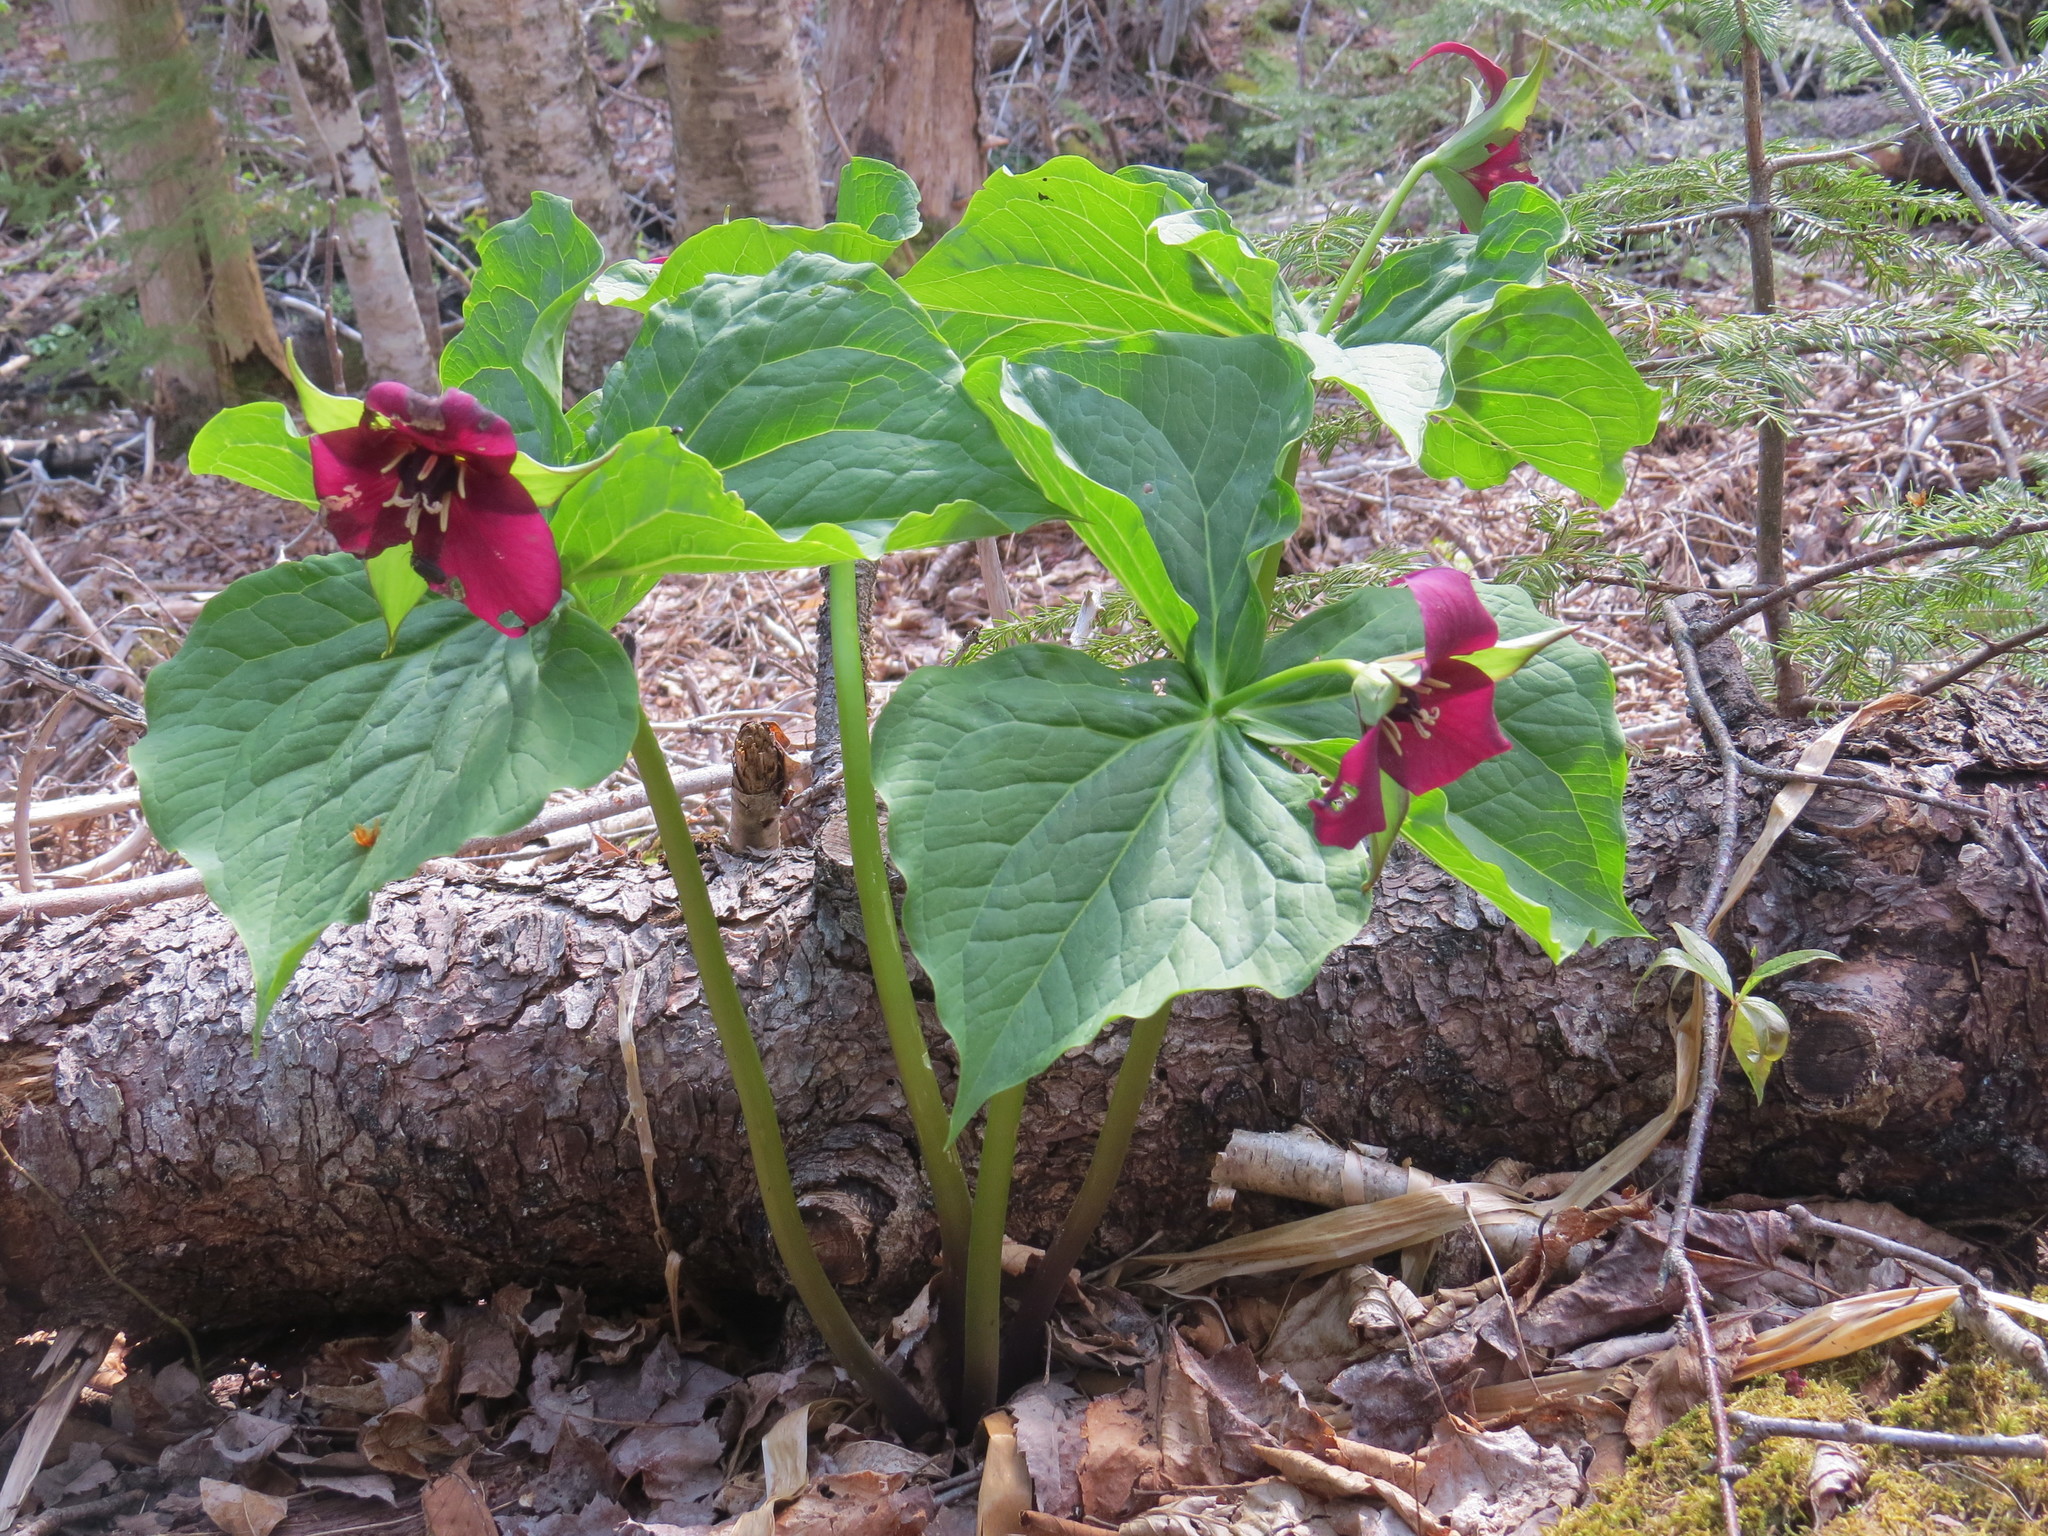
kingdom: Plantae
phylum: Tracheophyta
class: Liliopsida
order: Liliales
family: Melanthiaceae
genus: Trillium
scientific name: Trillium erectum
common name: Purple trillium
